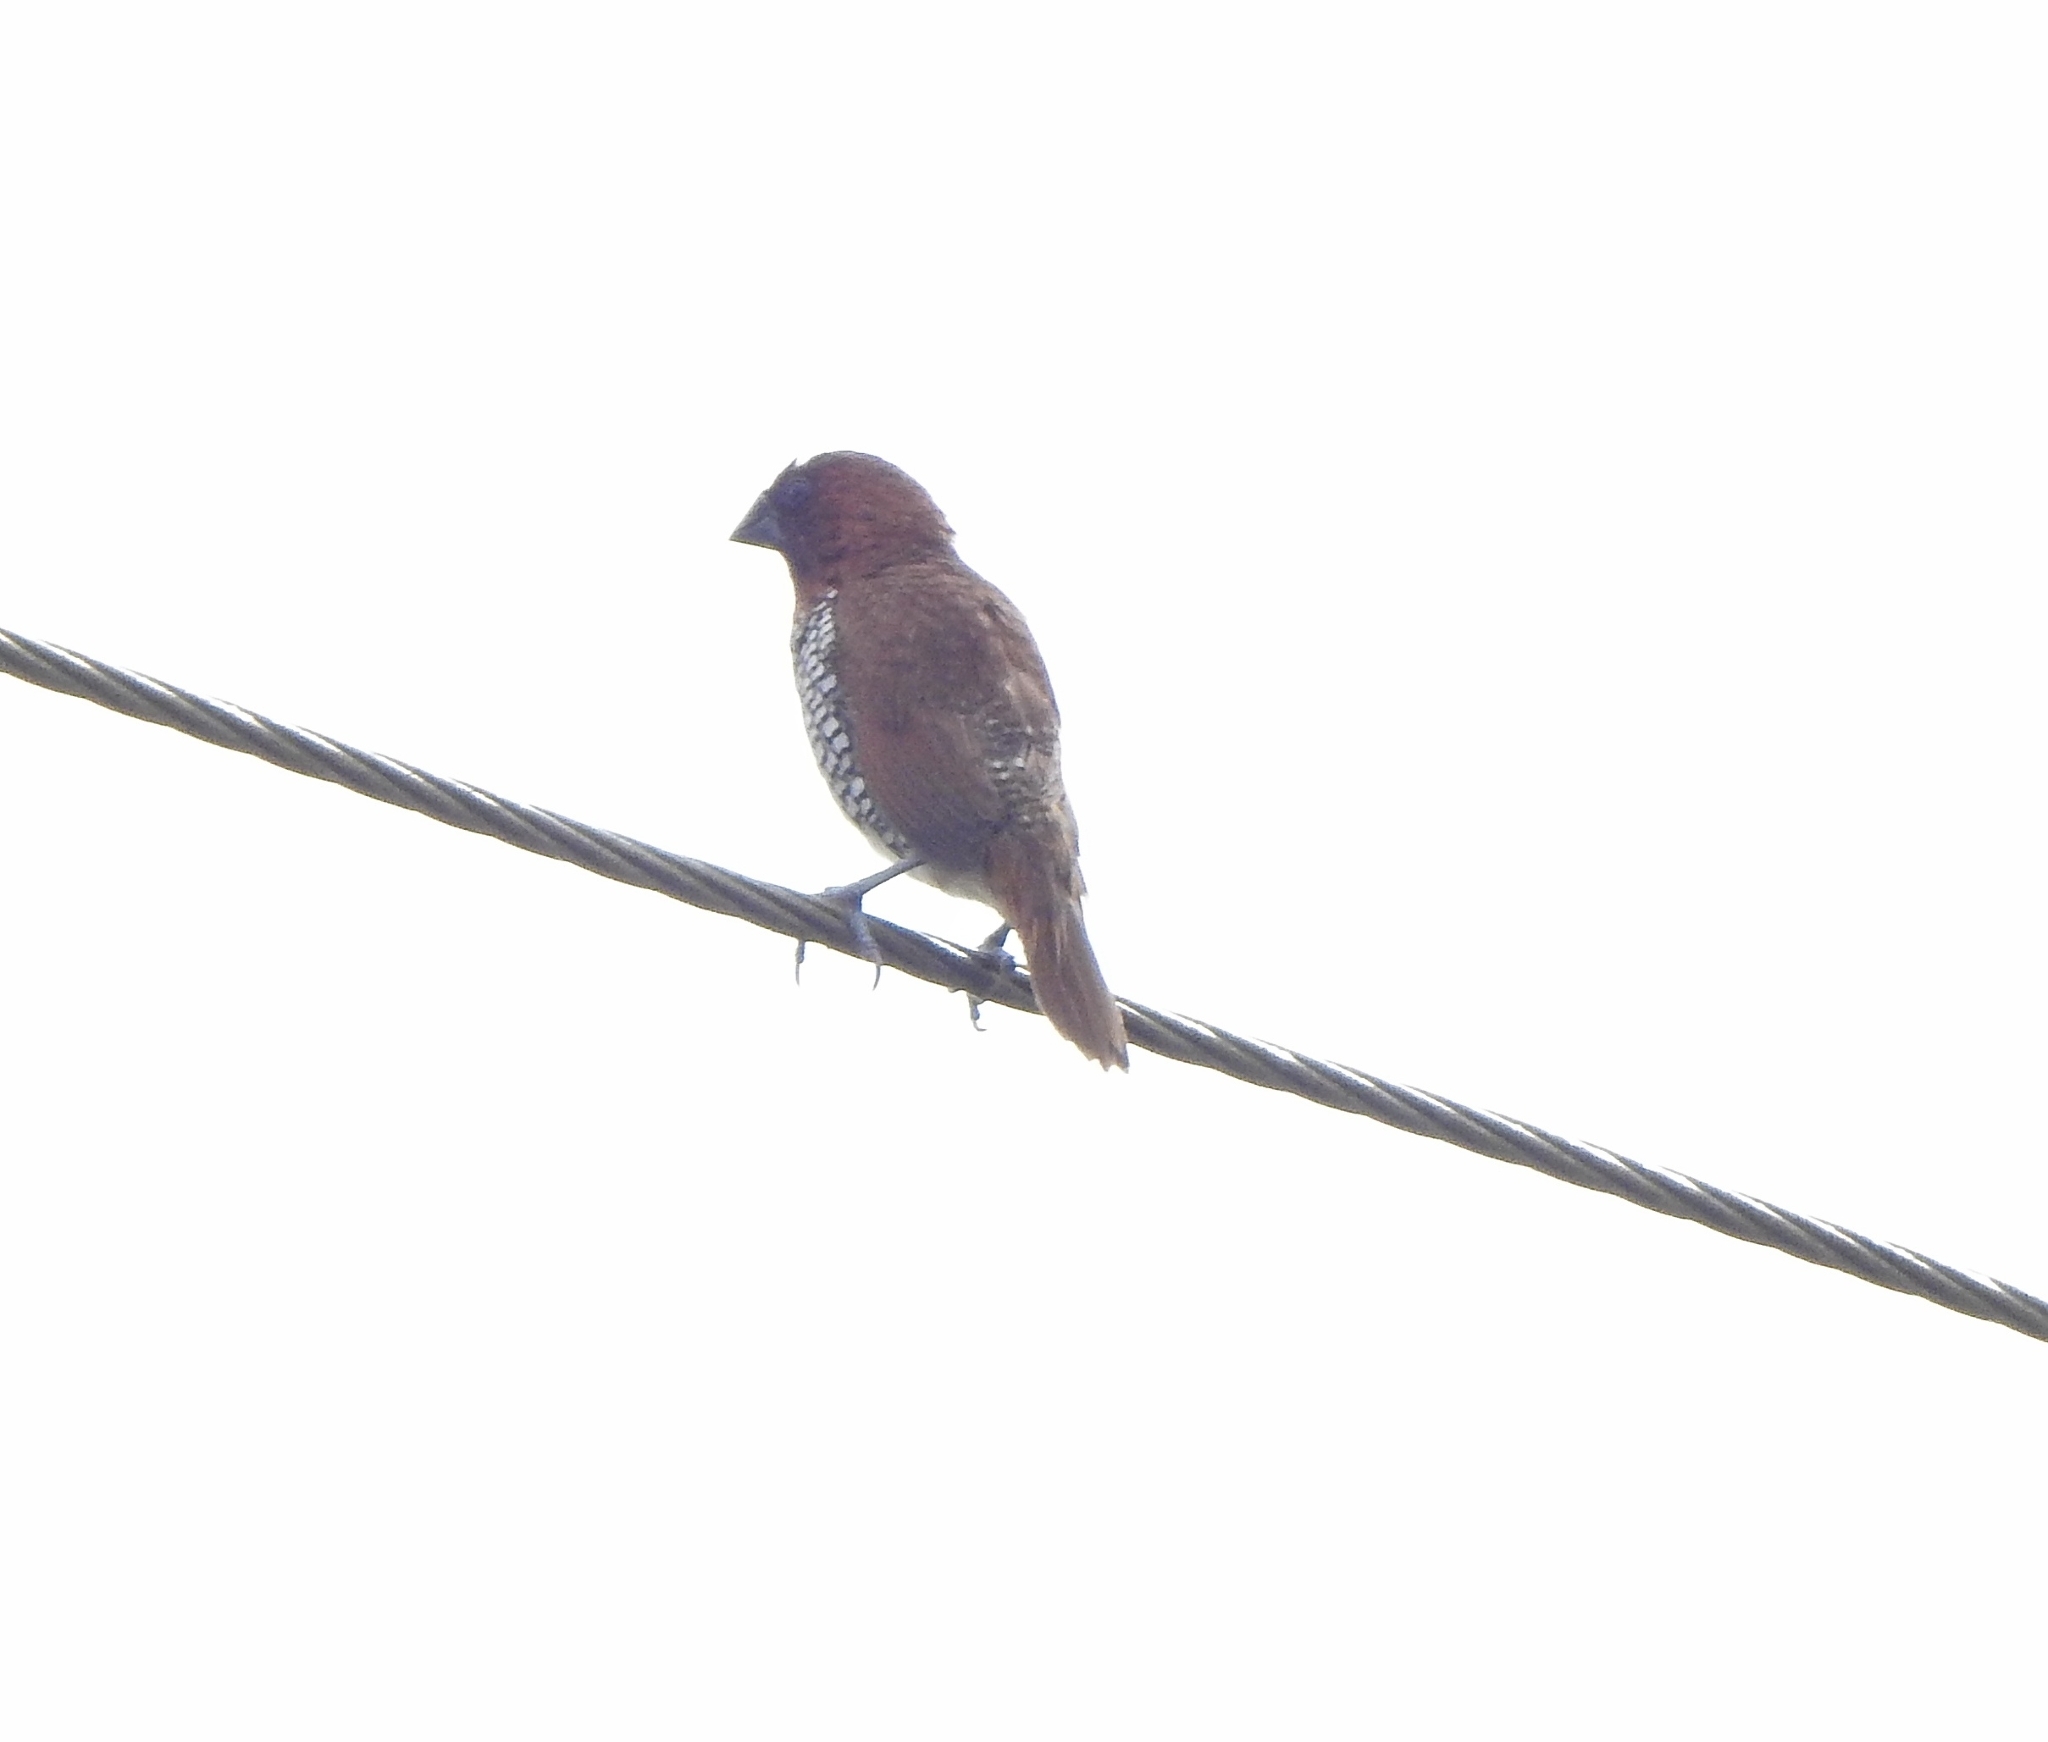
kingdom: Animalia
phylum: Chordata
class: Aves
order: Passeriformes
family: Estrildidae
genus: Lonchura
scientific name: Lonchura punctulata
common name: Scaly-breasted munia
